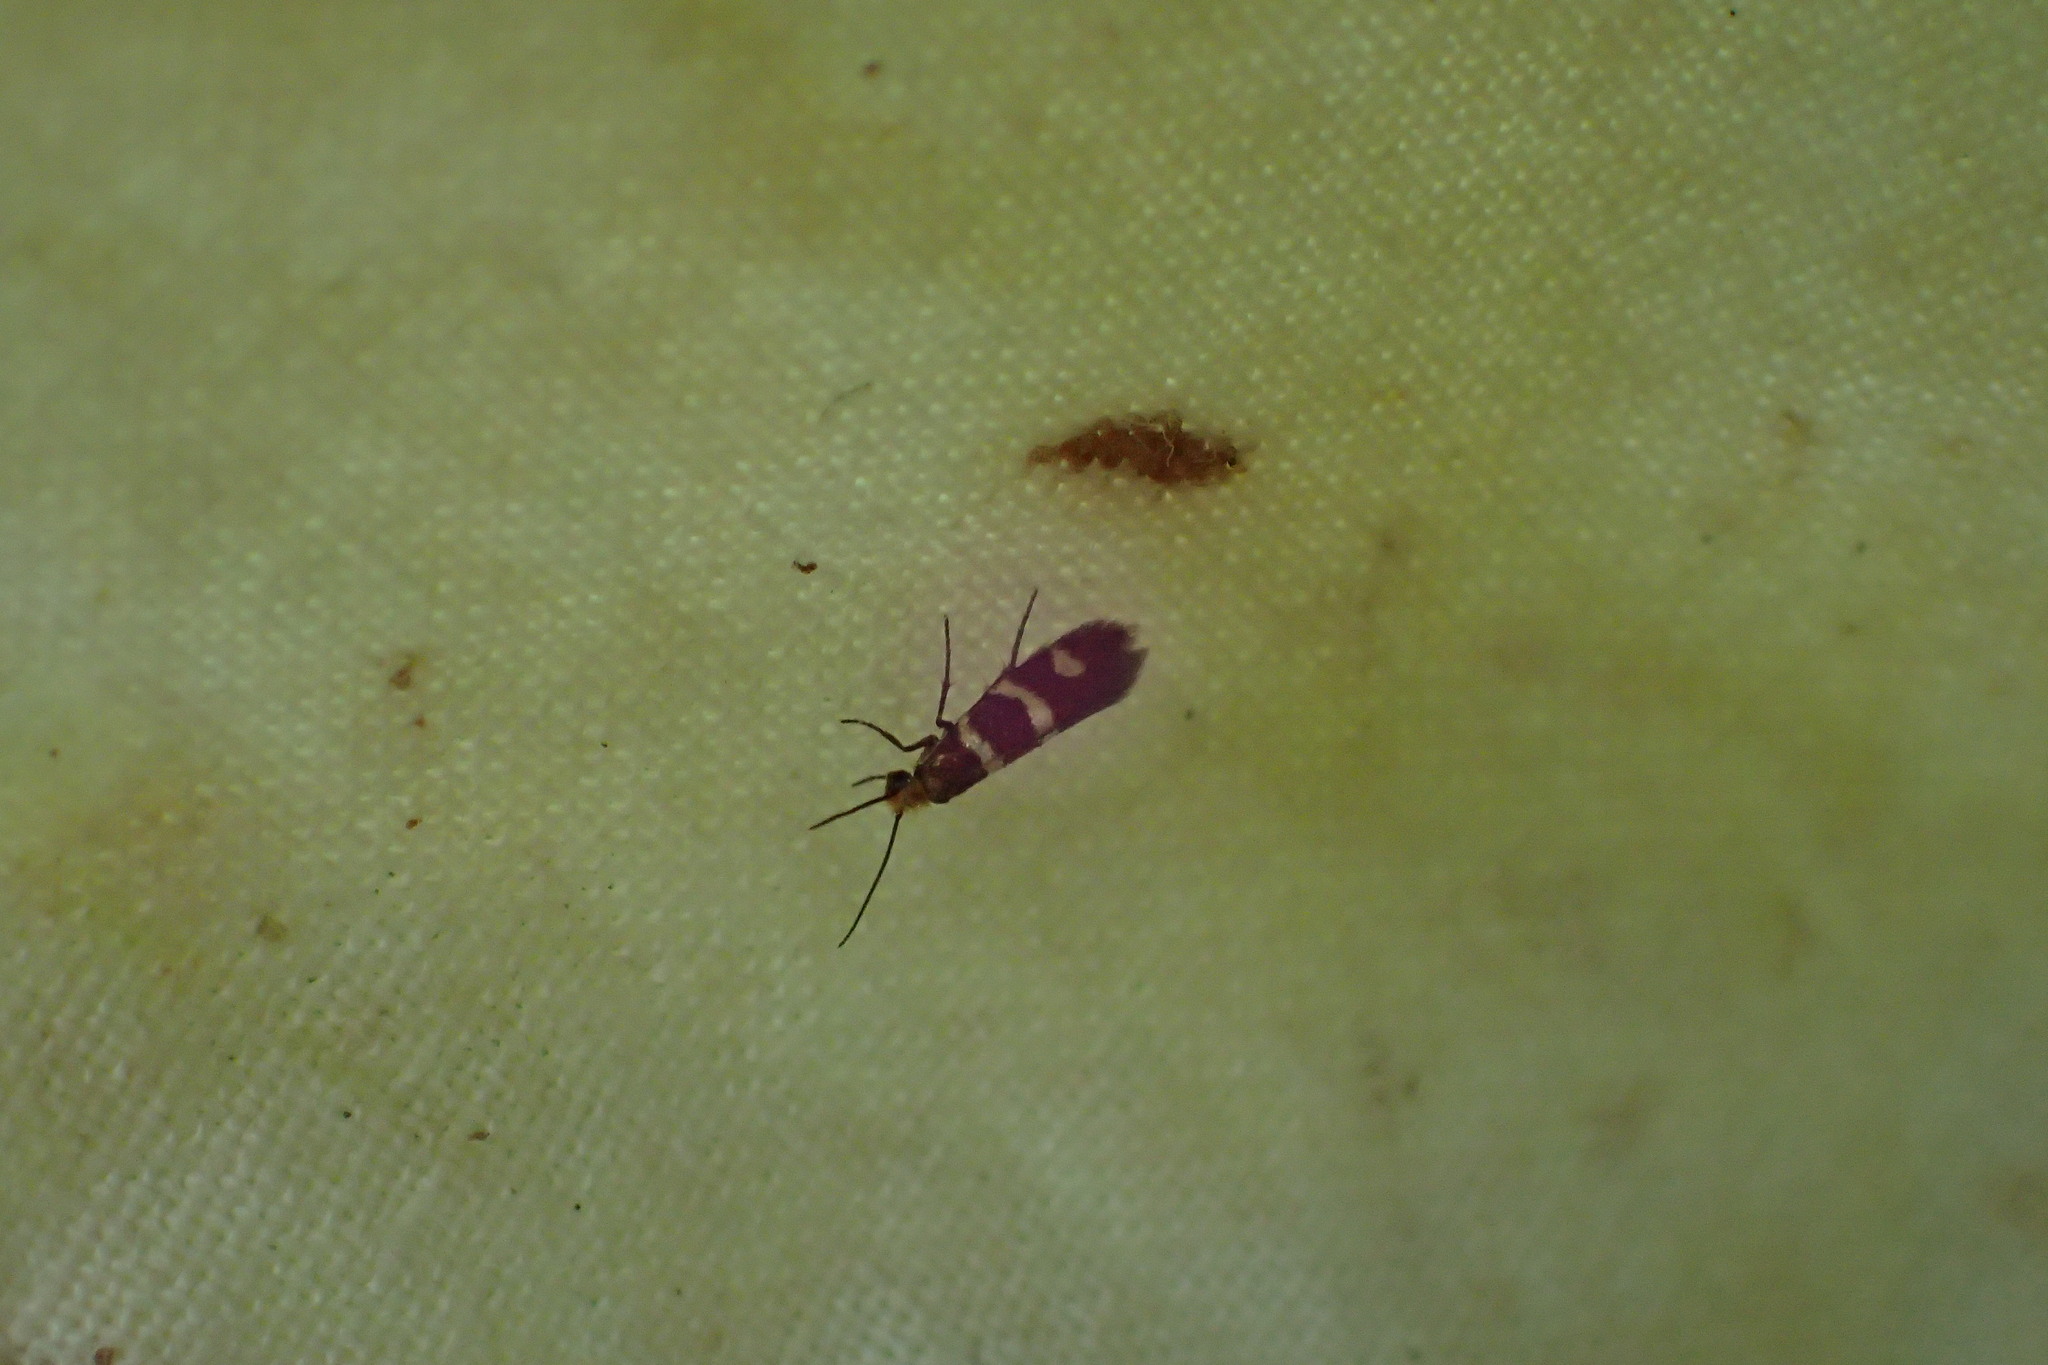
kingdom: Animalia
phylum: Arthropoda
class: Insecta
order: Lepidoptera
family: Micropterigidae
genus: Micropterix
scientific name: Micropterix aureatella
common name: Yellow-barred gold
